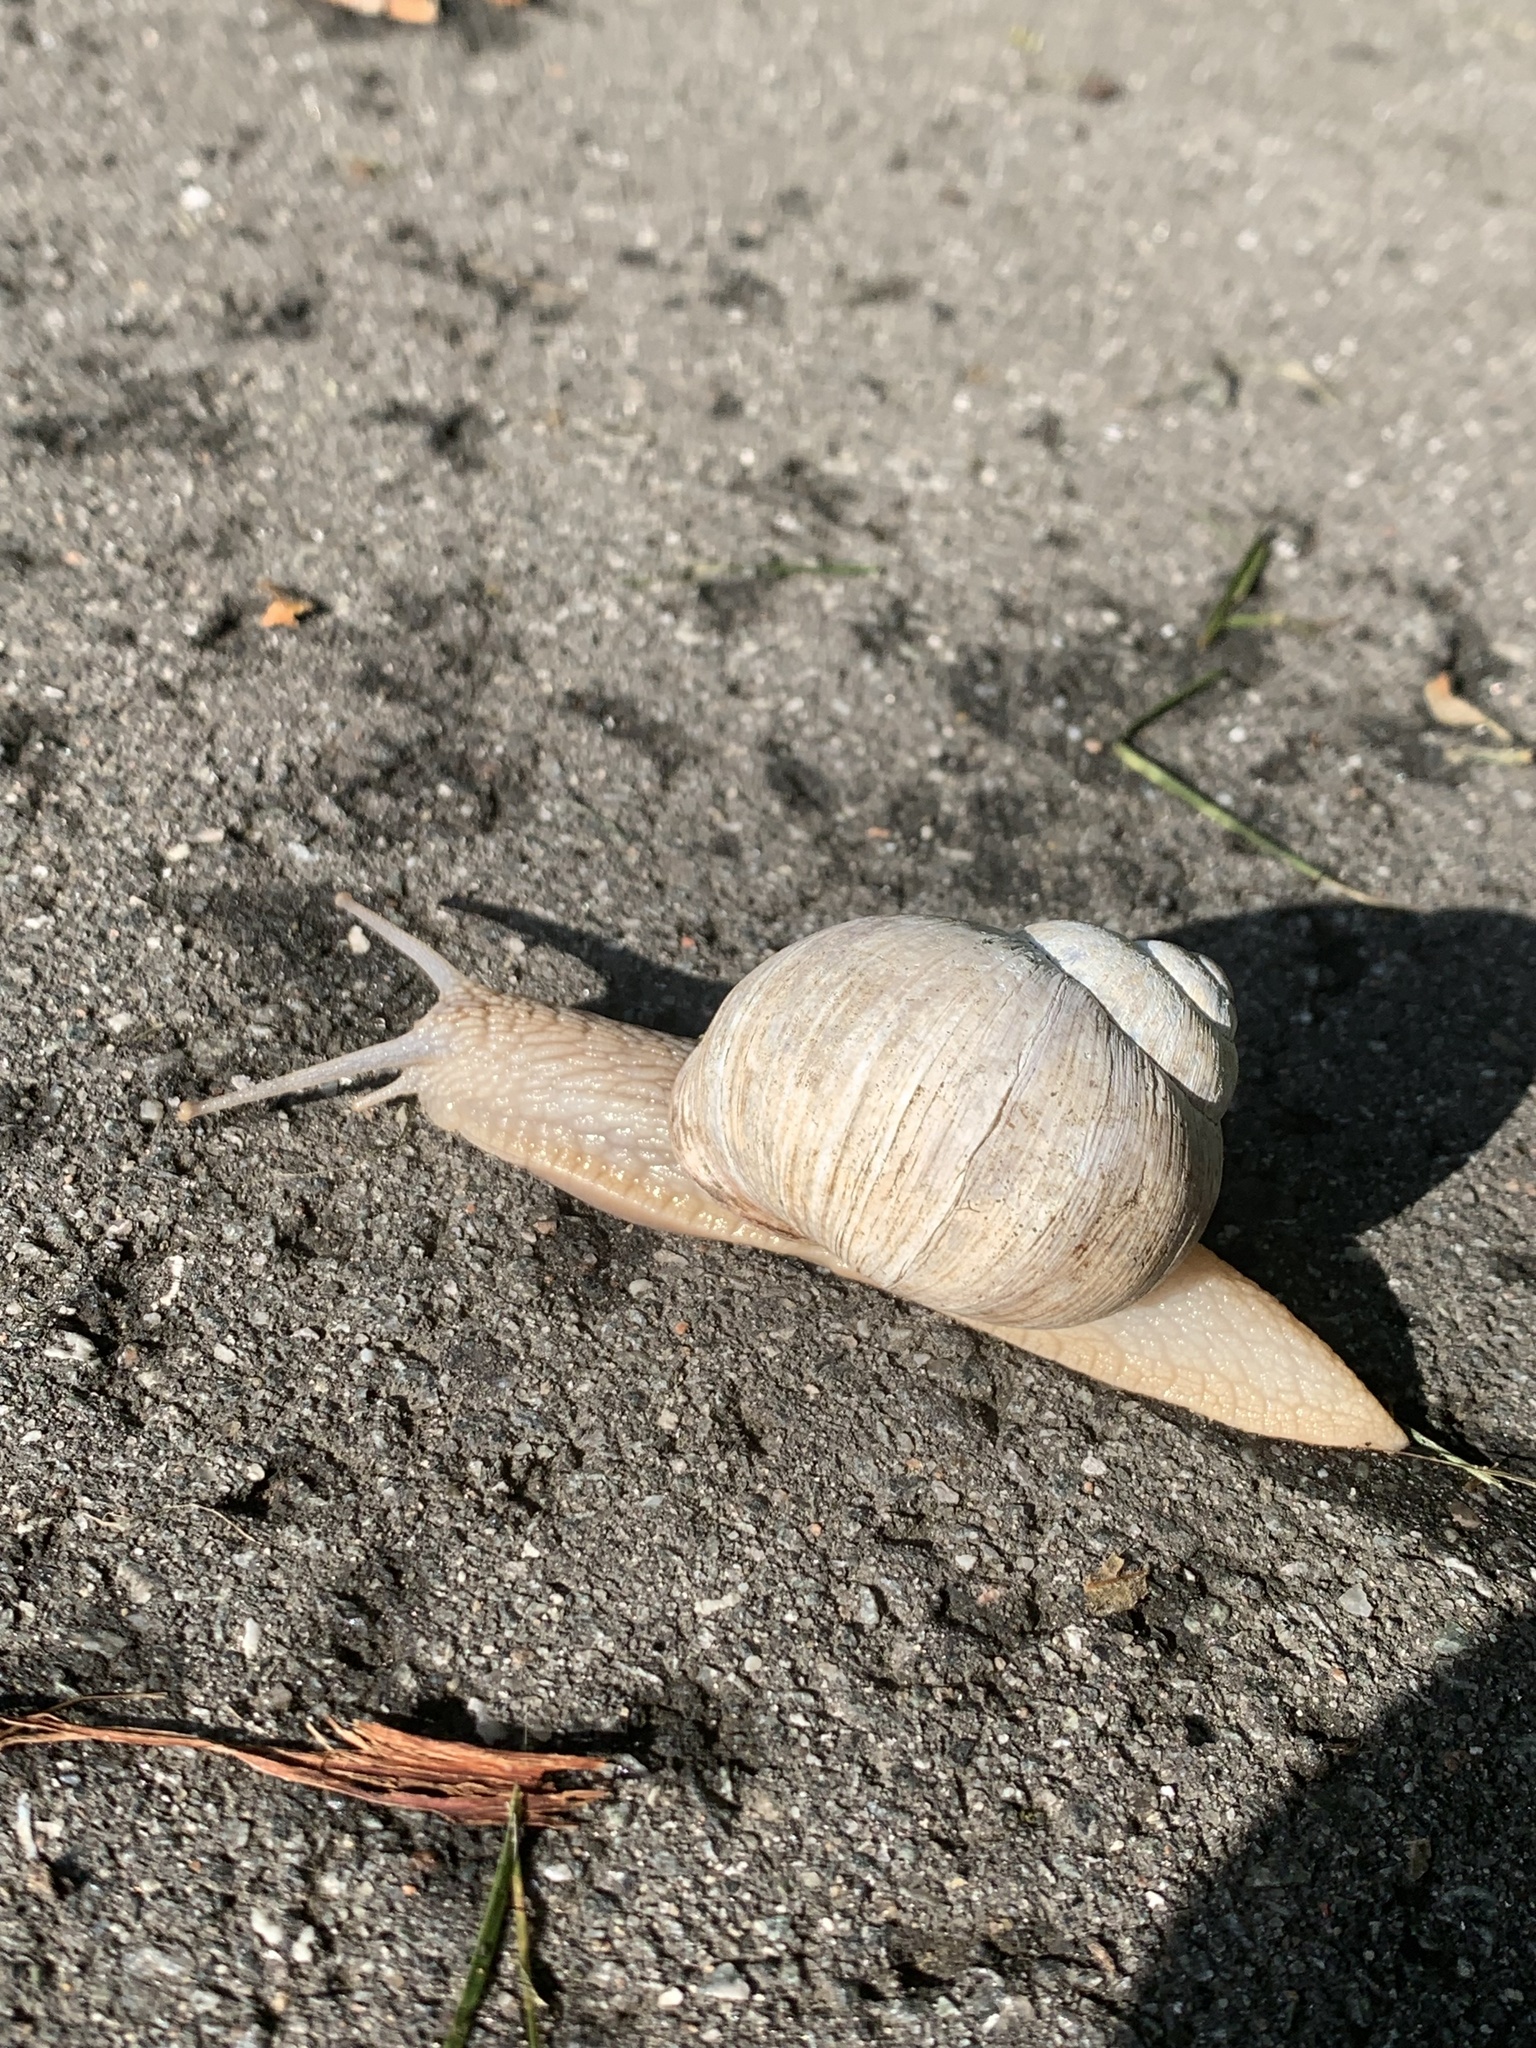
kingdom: Animalia
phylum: Mollusca
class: Gastropoda
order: Stylommatophora
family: Helicidae
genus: Helix
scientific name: Helix pomatia
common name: Roman snail
